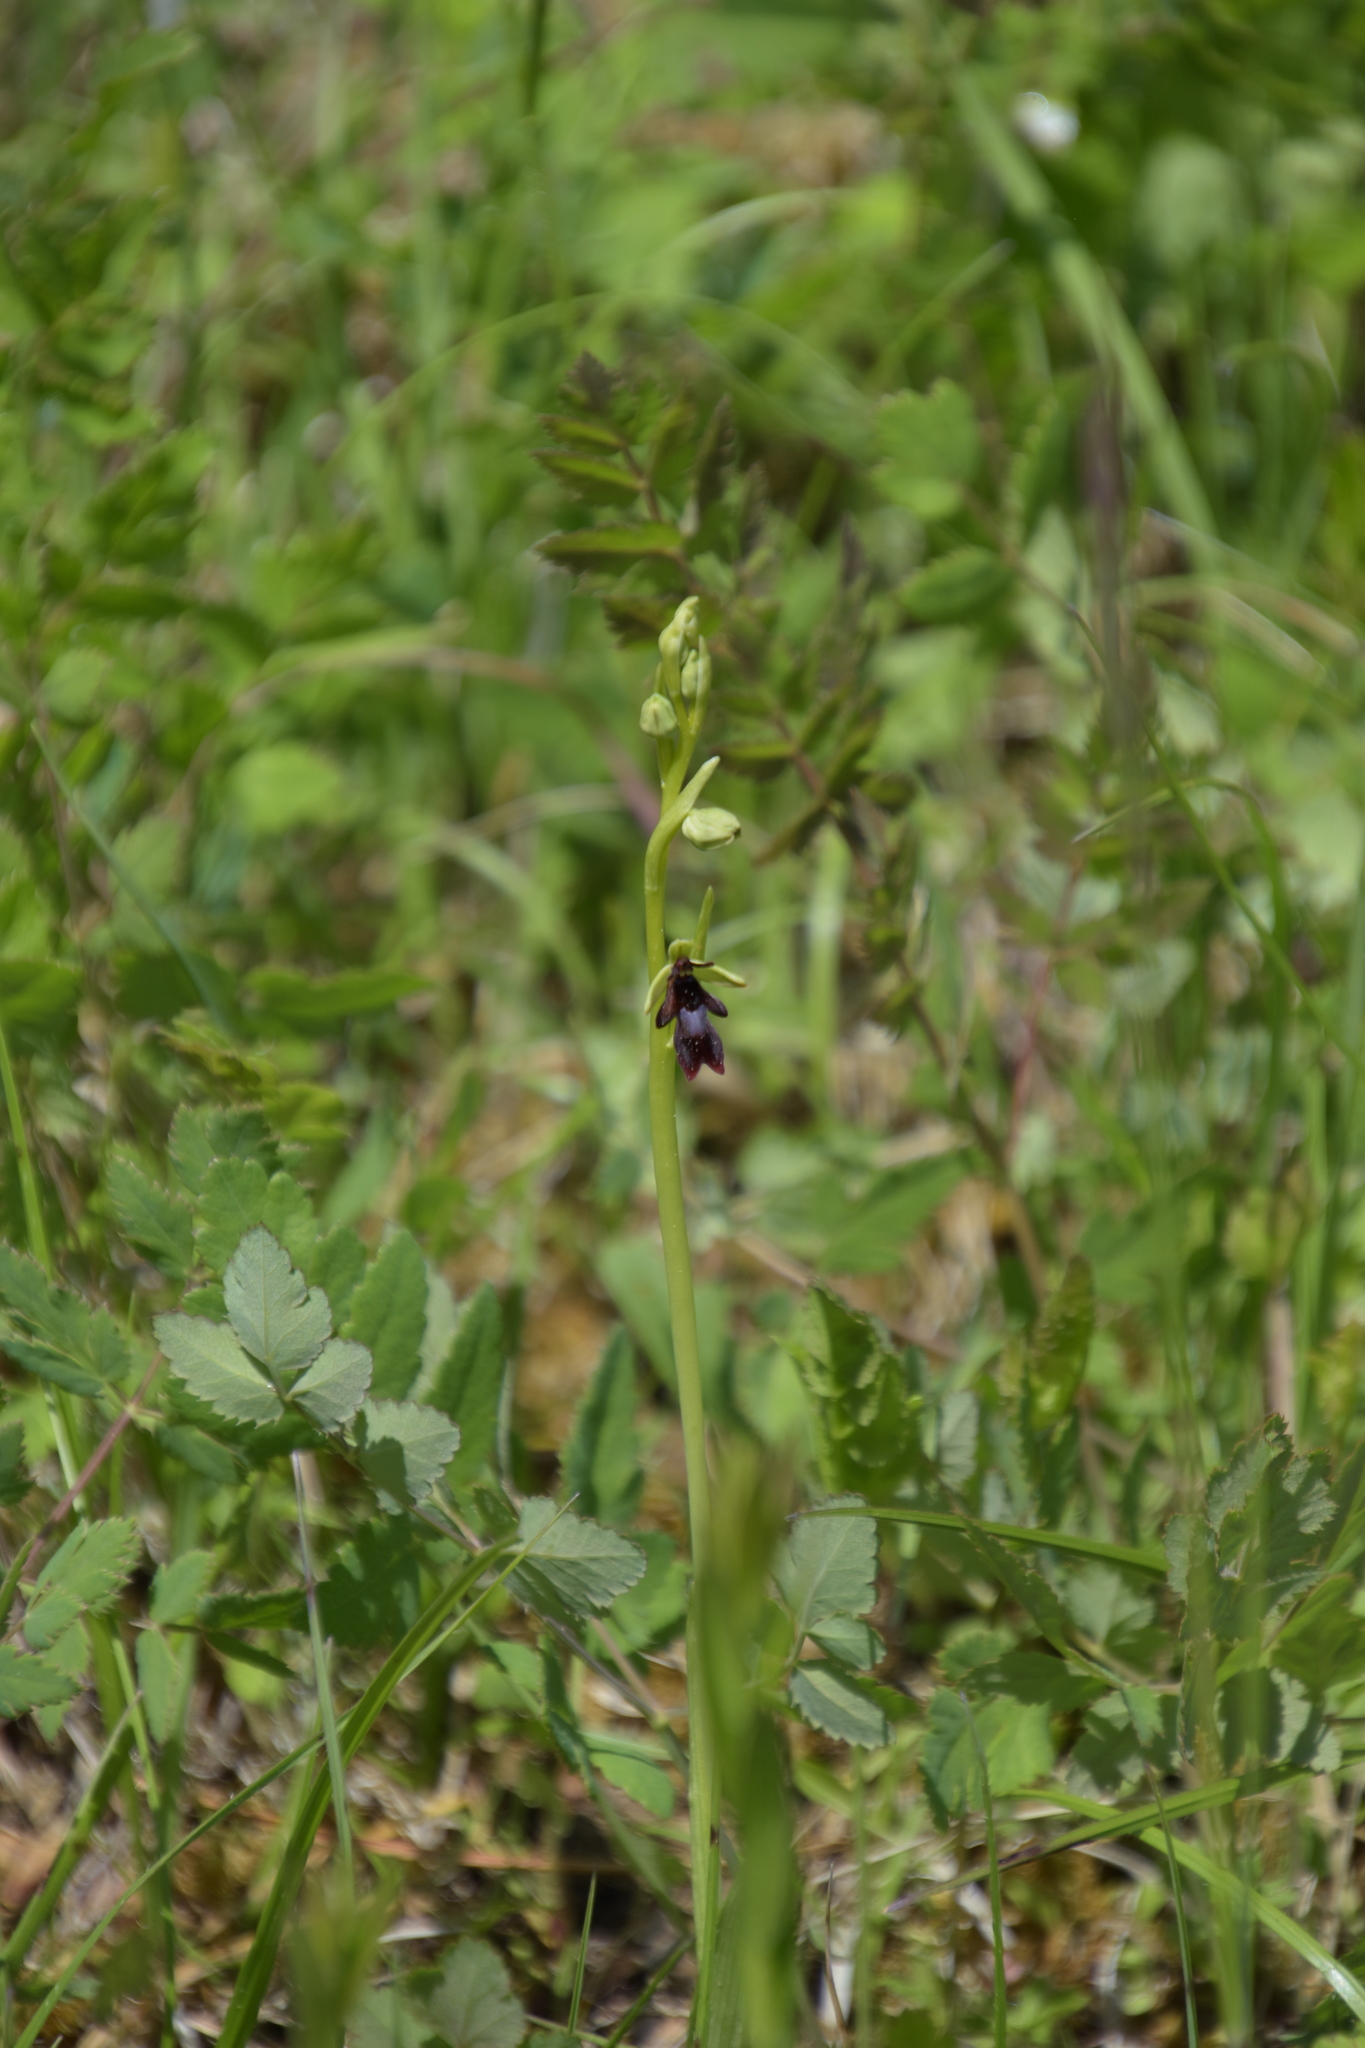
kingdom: Plantae
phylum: Tracheophyta
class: Liliopsida
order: Asparagales
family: Orchidaceae
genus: Ophrys
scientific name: Ophrys insectifera
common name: Fly orchid
